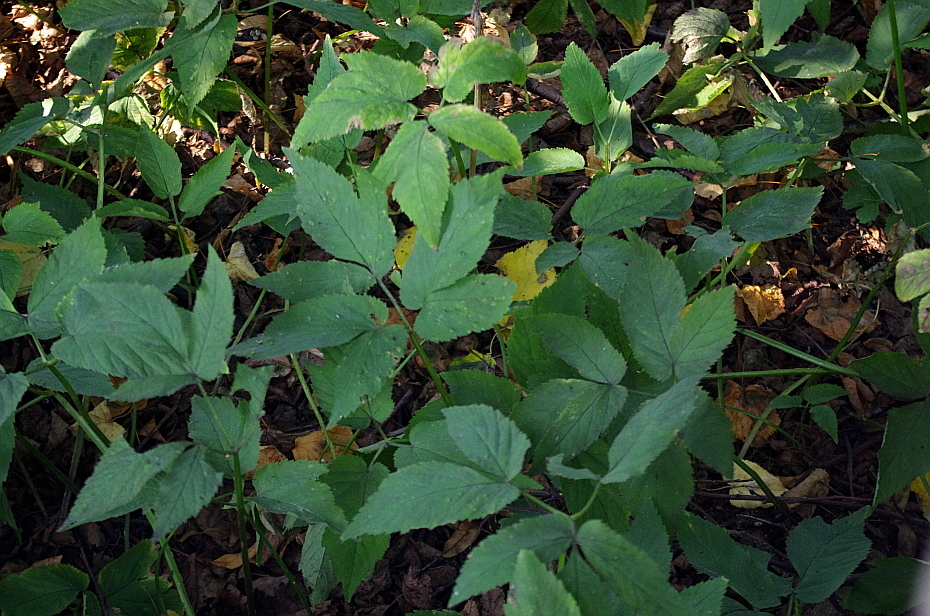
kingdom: Plantae
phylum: Tracheophyta
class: Magnoliopsida
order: Apiales
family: Apiaceae
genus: Aegopodium
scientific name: Aegopodium podagraria
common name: Ground-elder
